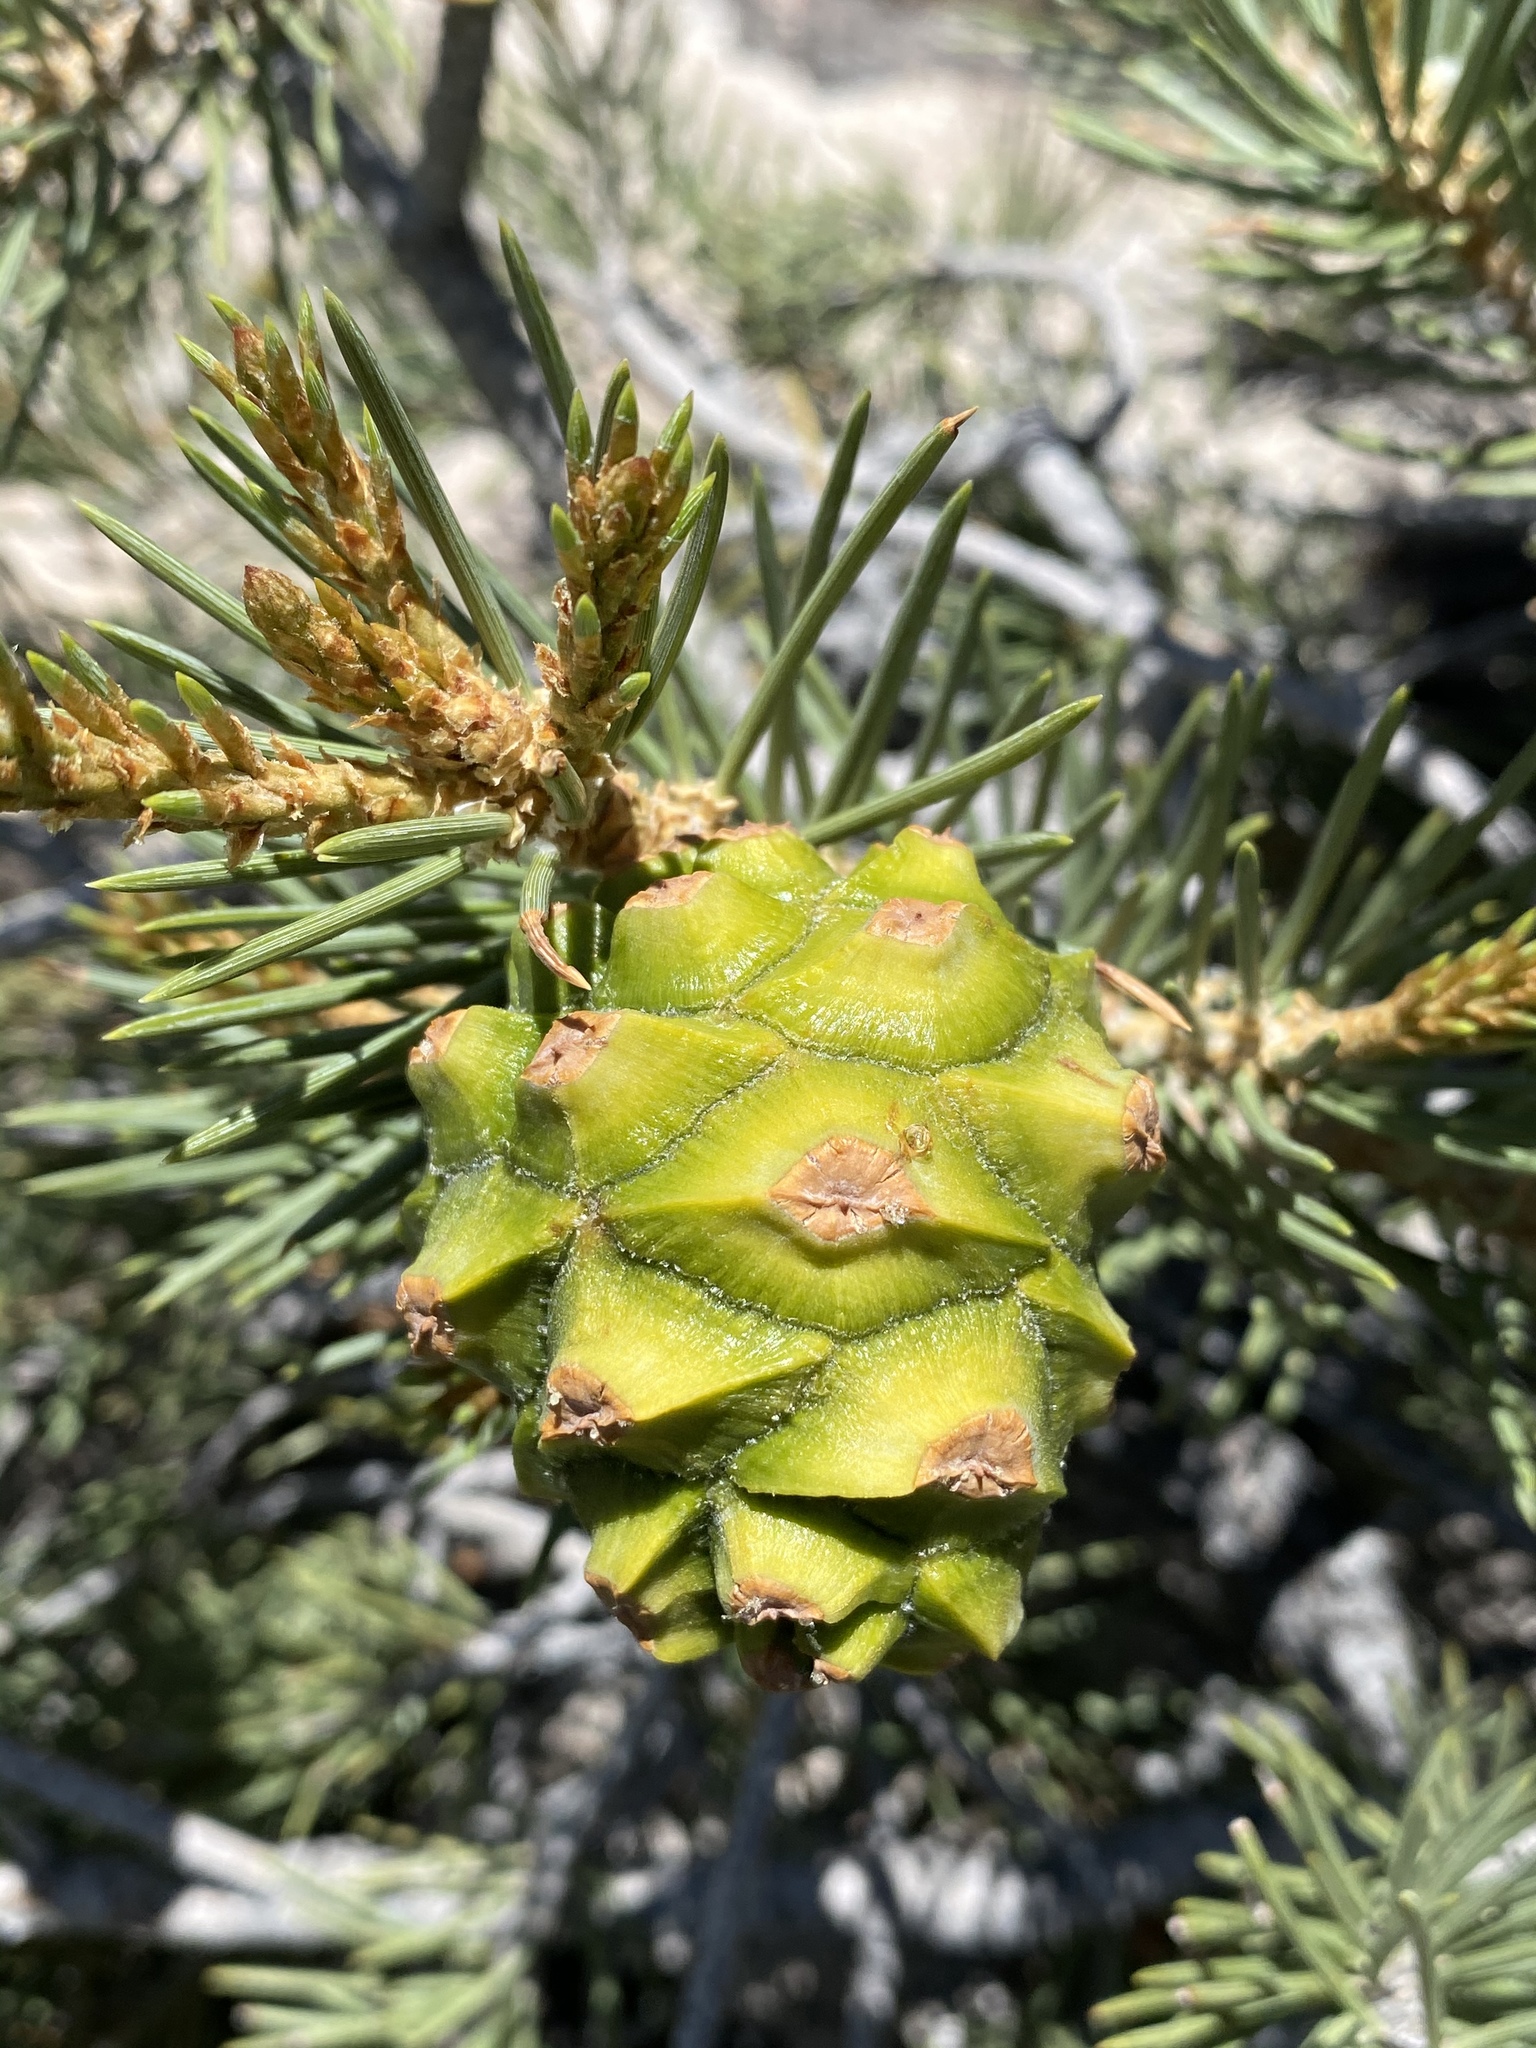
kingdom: Plantae
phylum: Tracheophyta
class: Pinopsida
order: Pinales
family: Pinaceae
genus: Pinus
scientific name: Pinus monophylla
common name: One-leaved nut pine
